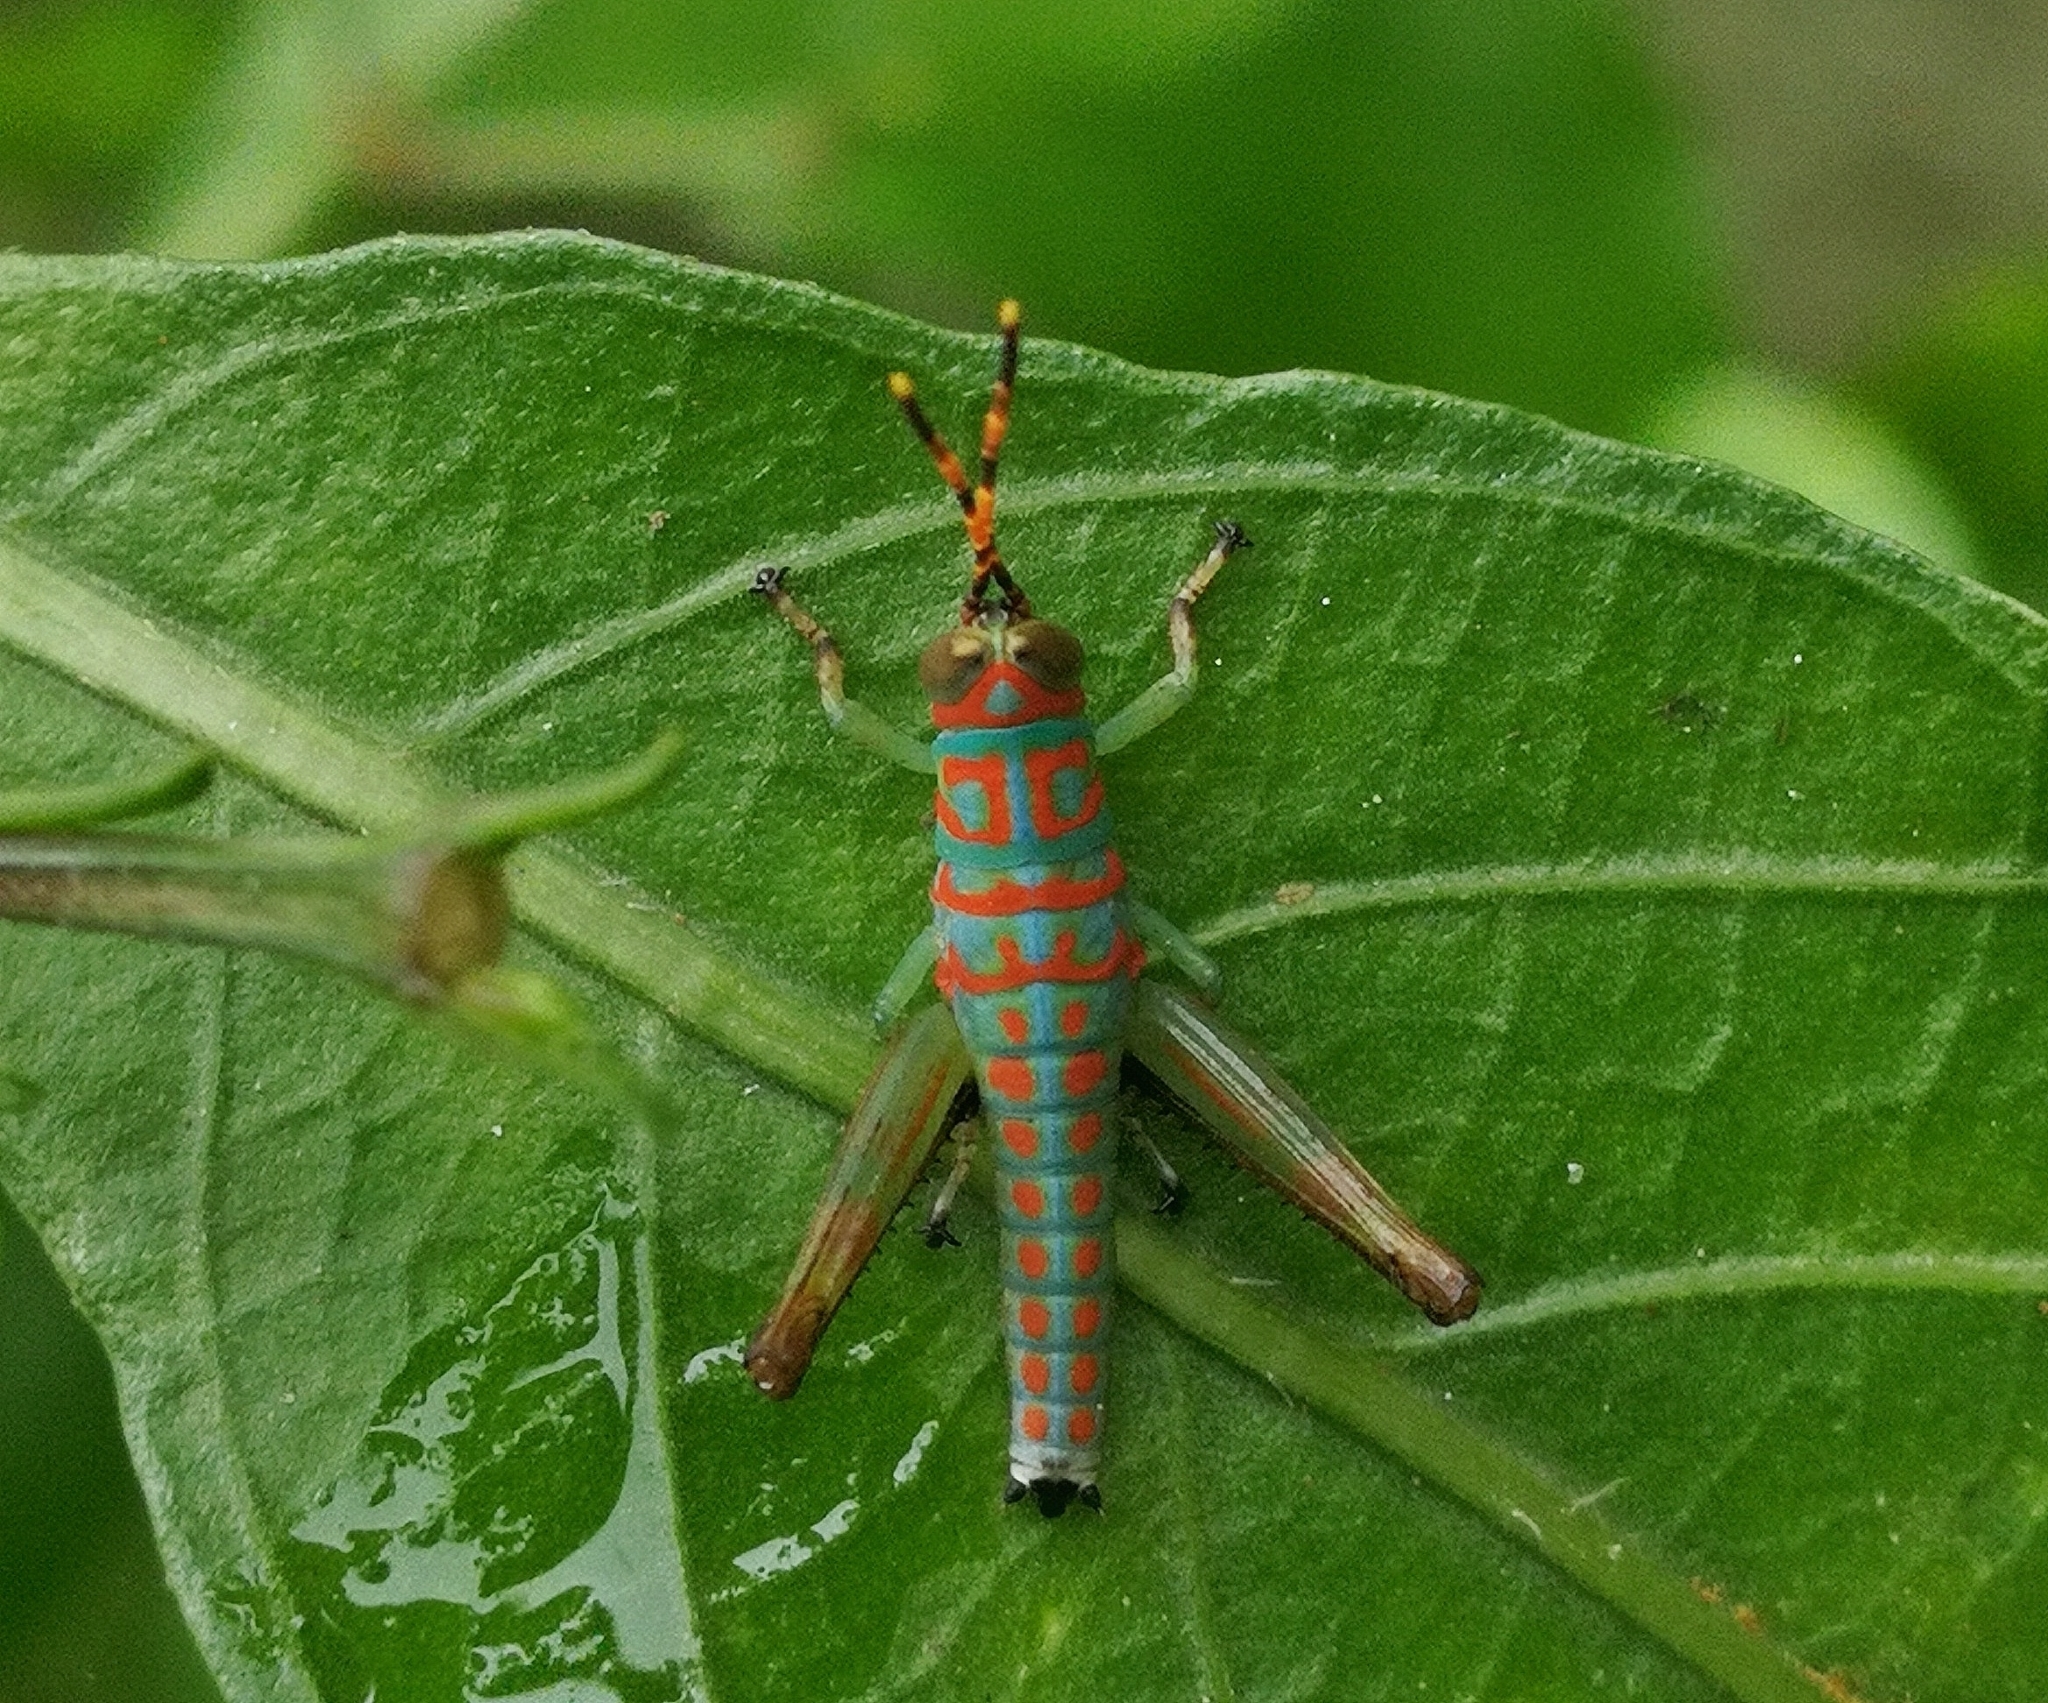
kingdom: Animalia
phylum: Arthropoda
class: Insecta
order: Orthoptera
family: Acrididae
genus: Pirithoicus
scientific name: Pirithoicus ophthalmicus
